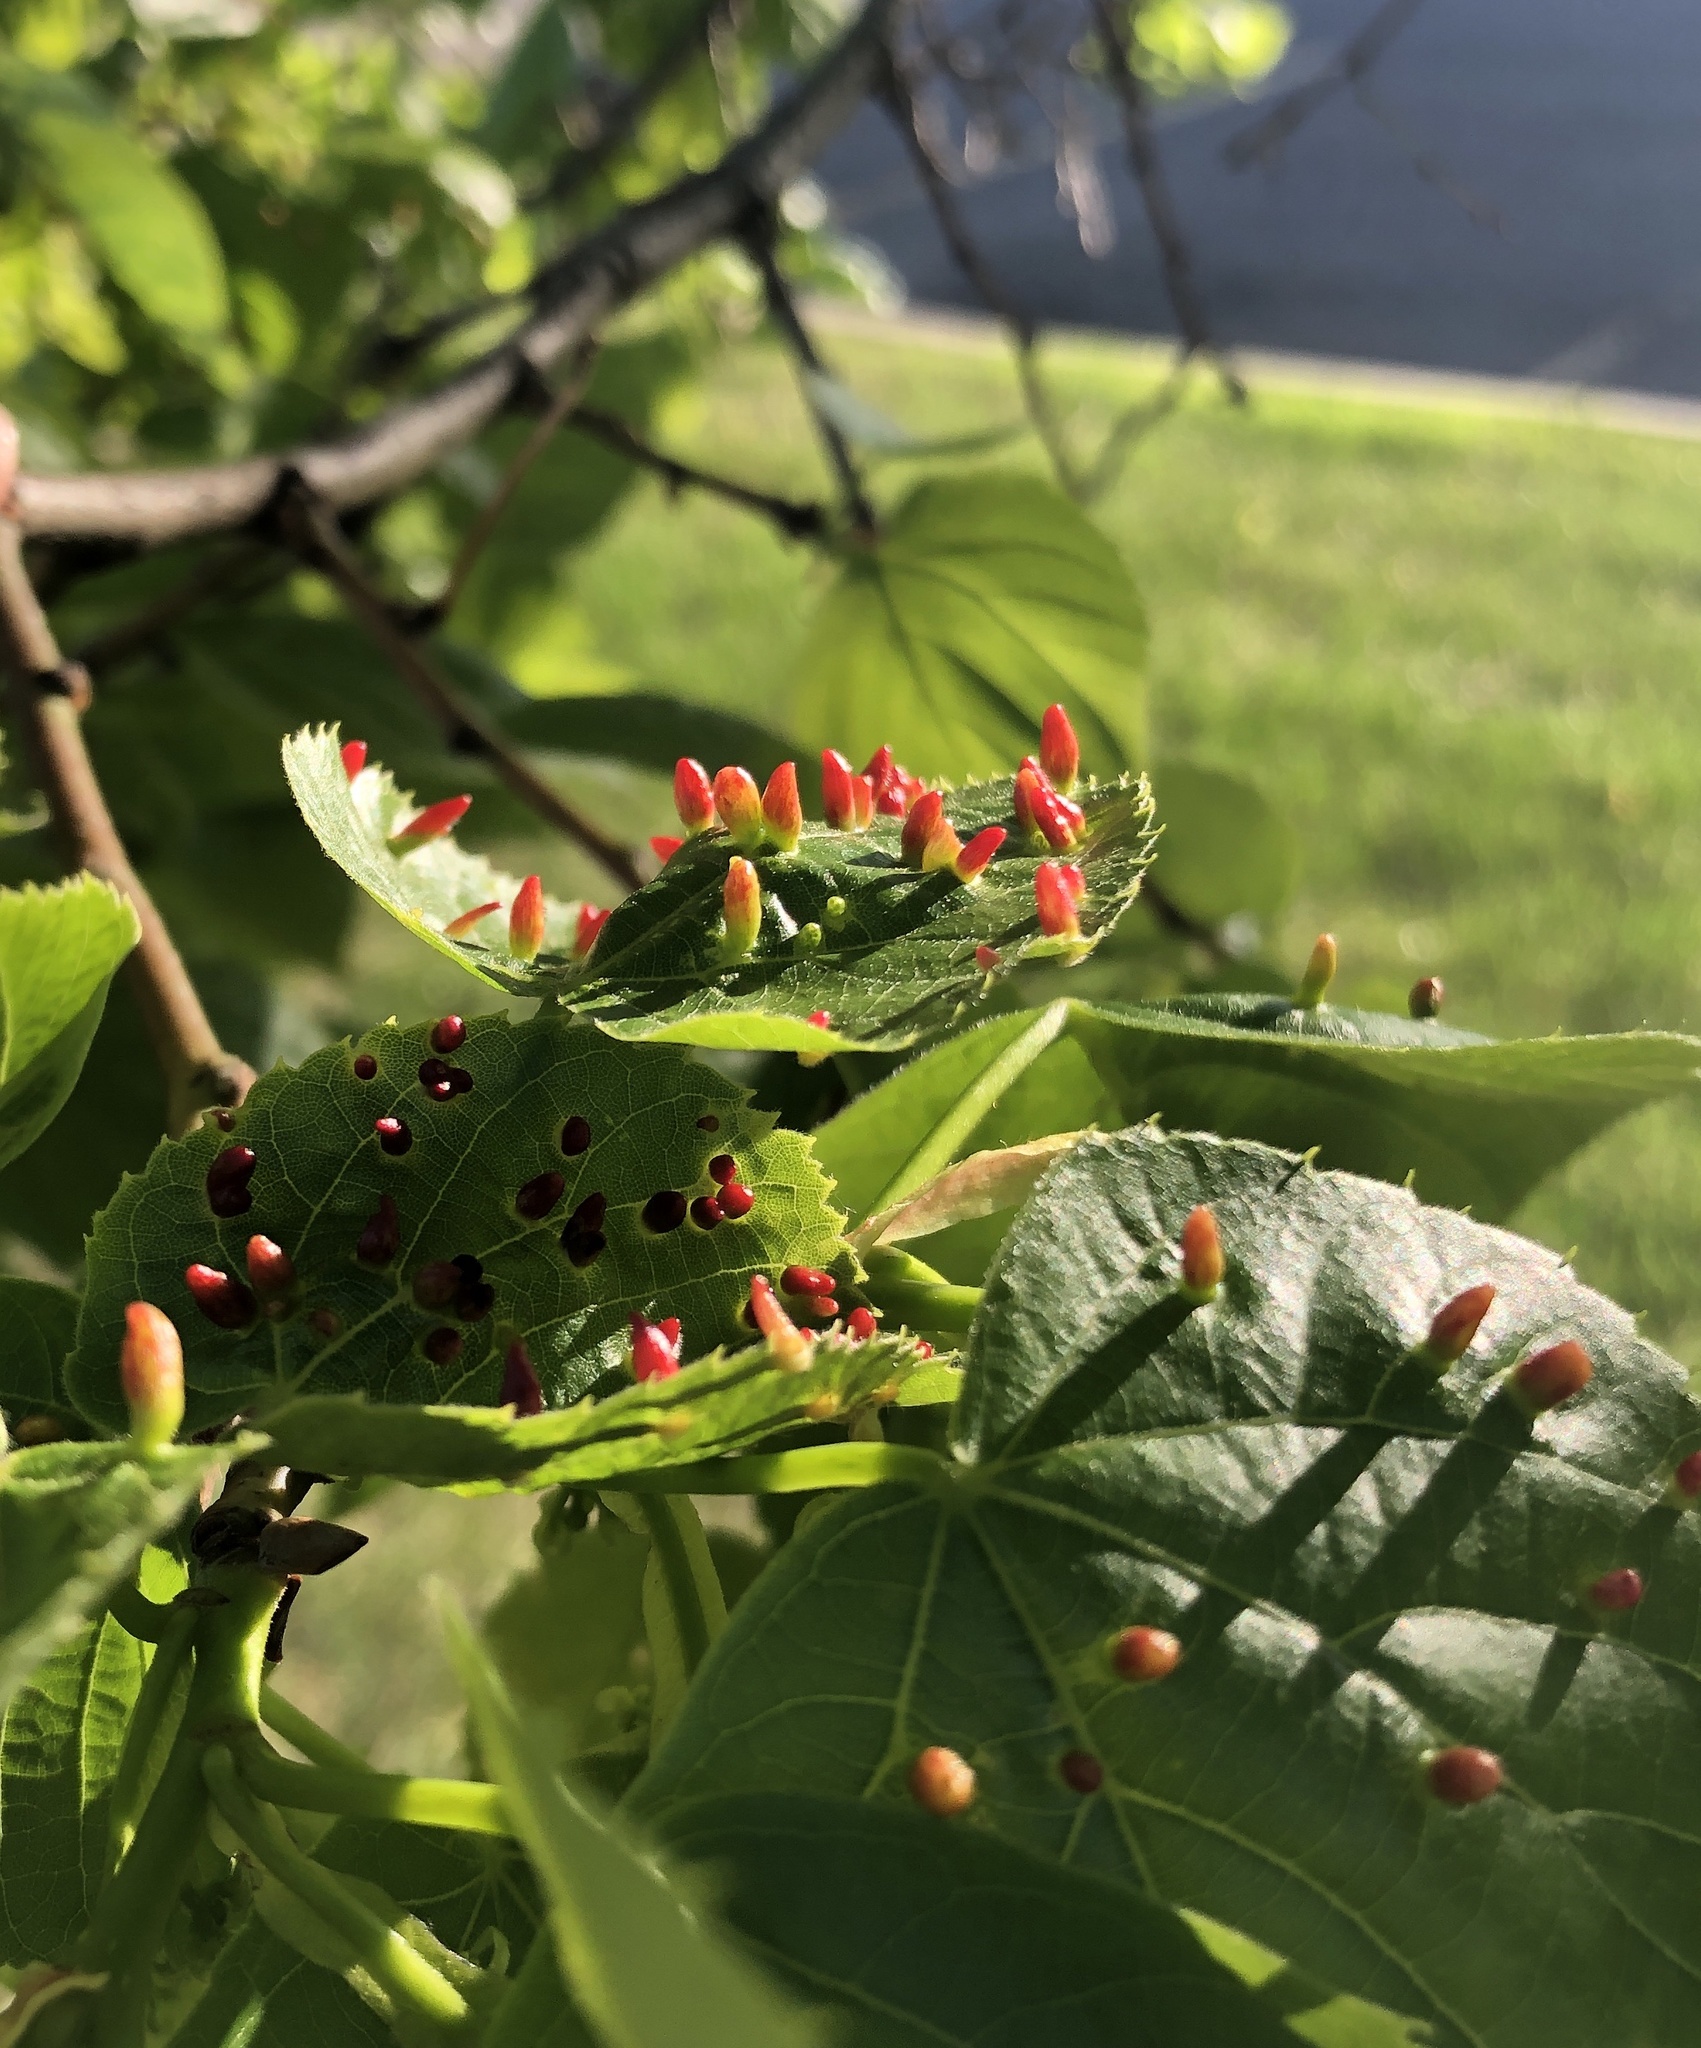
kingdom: Animalia
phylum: Arthropoda
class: Arachnida
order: Trombidiformes
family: Eriophyidae
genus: Eriophyes
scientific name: Eriophyes tiliae
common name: Red nail gall mite
